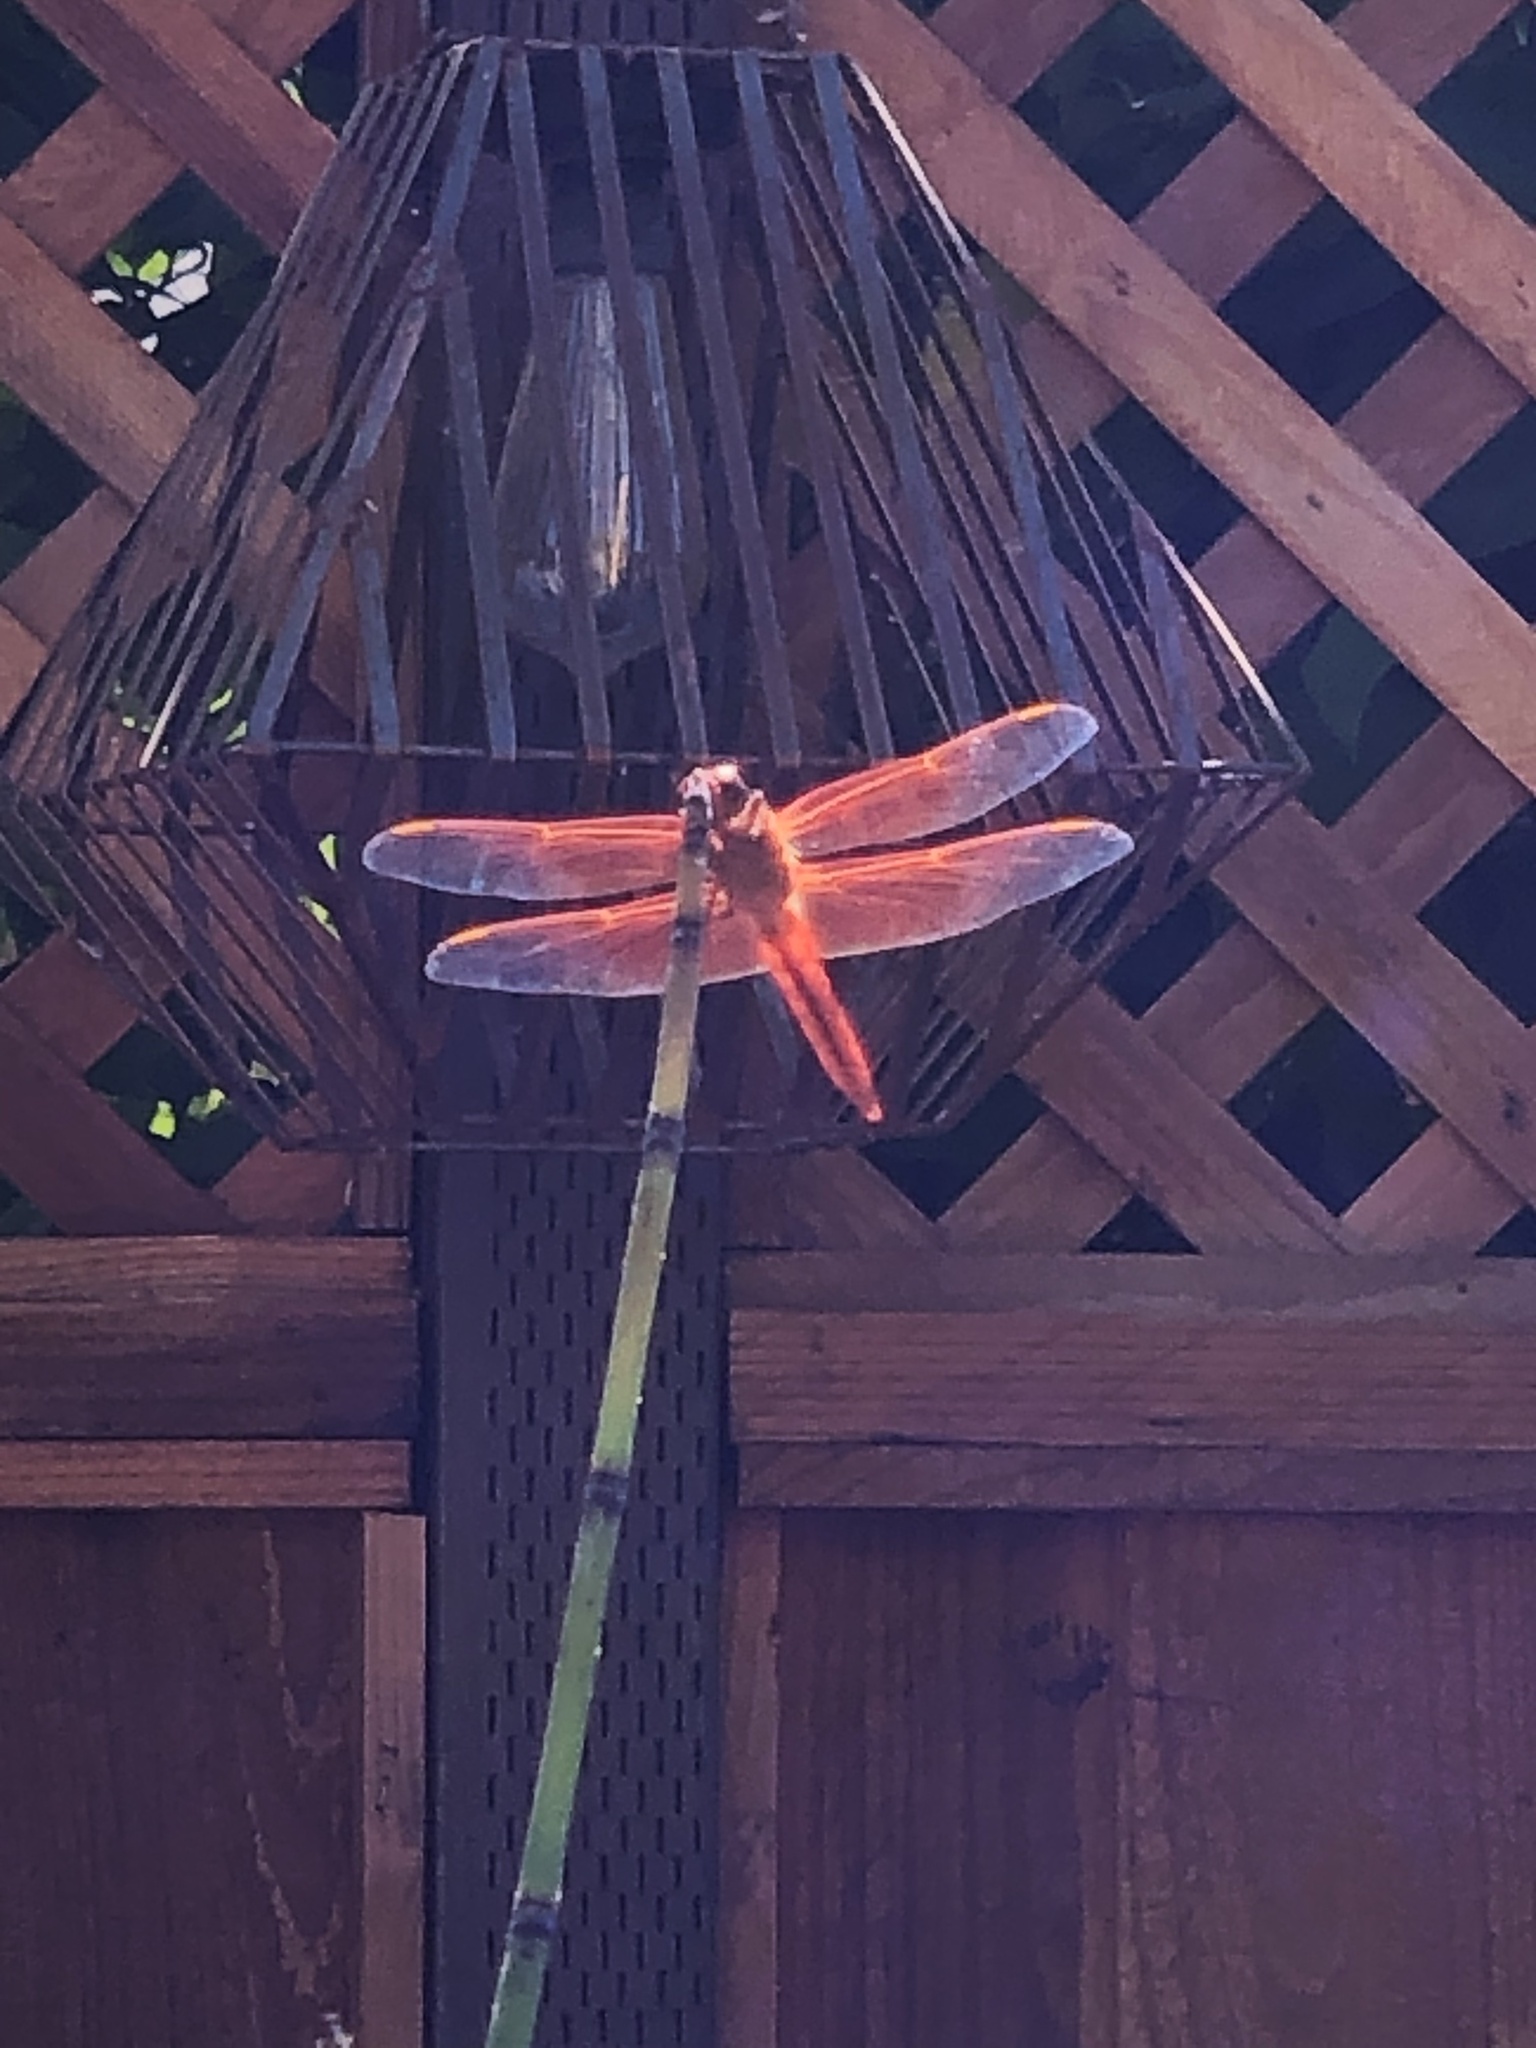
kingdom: Animalia
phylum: Arthropoda
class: Insecta
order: Odonata
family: Libellulidae
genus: Libellula
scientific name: Libellula saturata
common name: Flame skimmer
